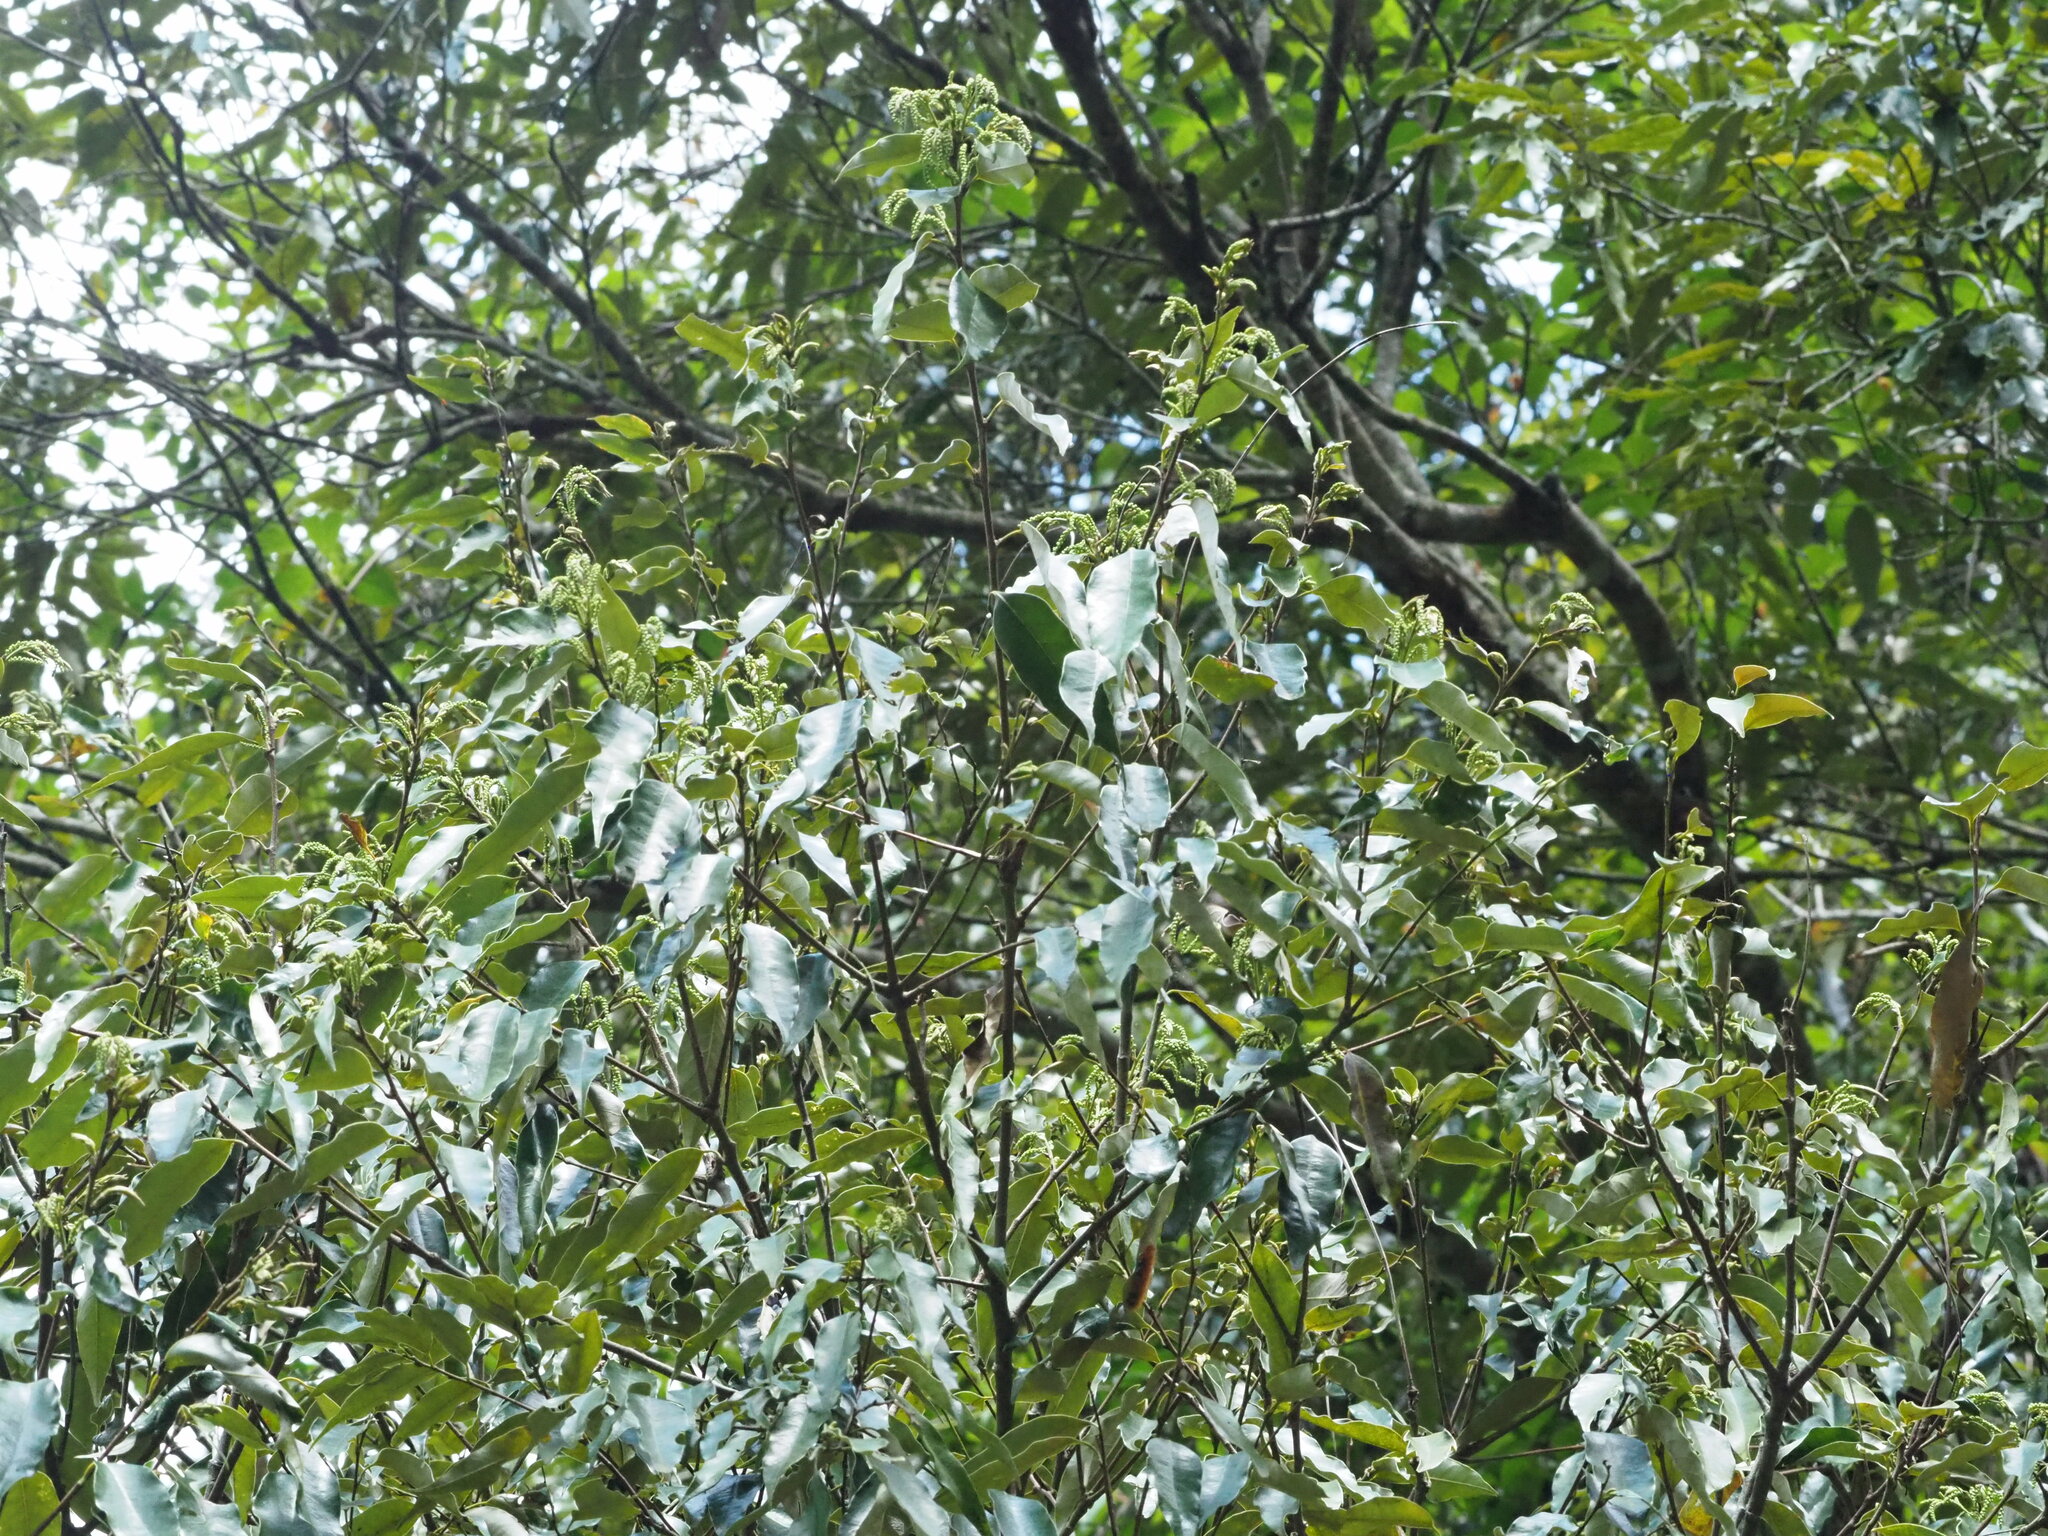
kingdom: Plantae
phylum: Tracheophyta
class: Magnoliopsida
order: Fagales
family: Fagaceae
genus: Castanopsis
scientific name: Castanopsis carlesii
